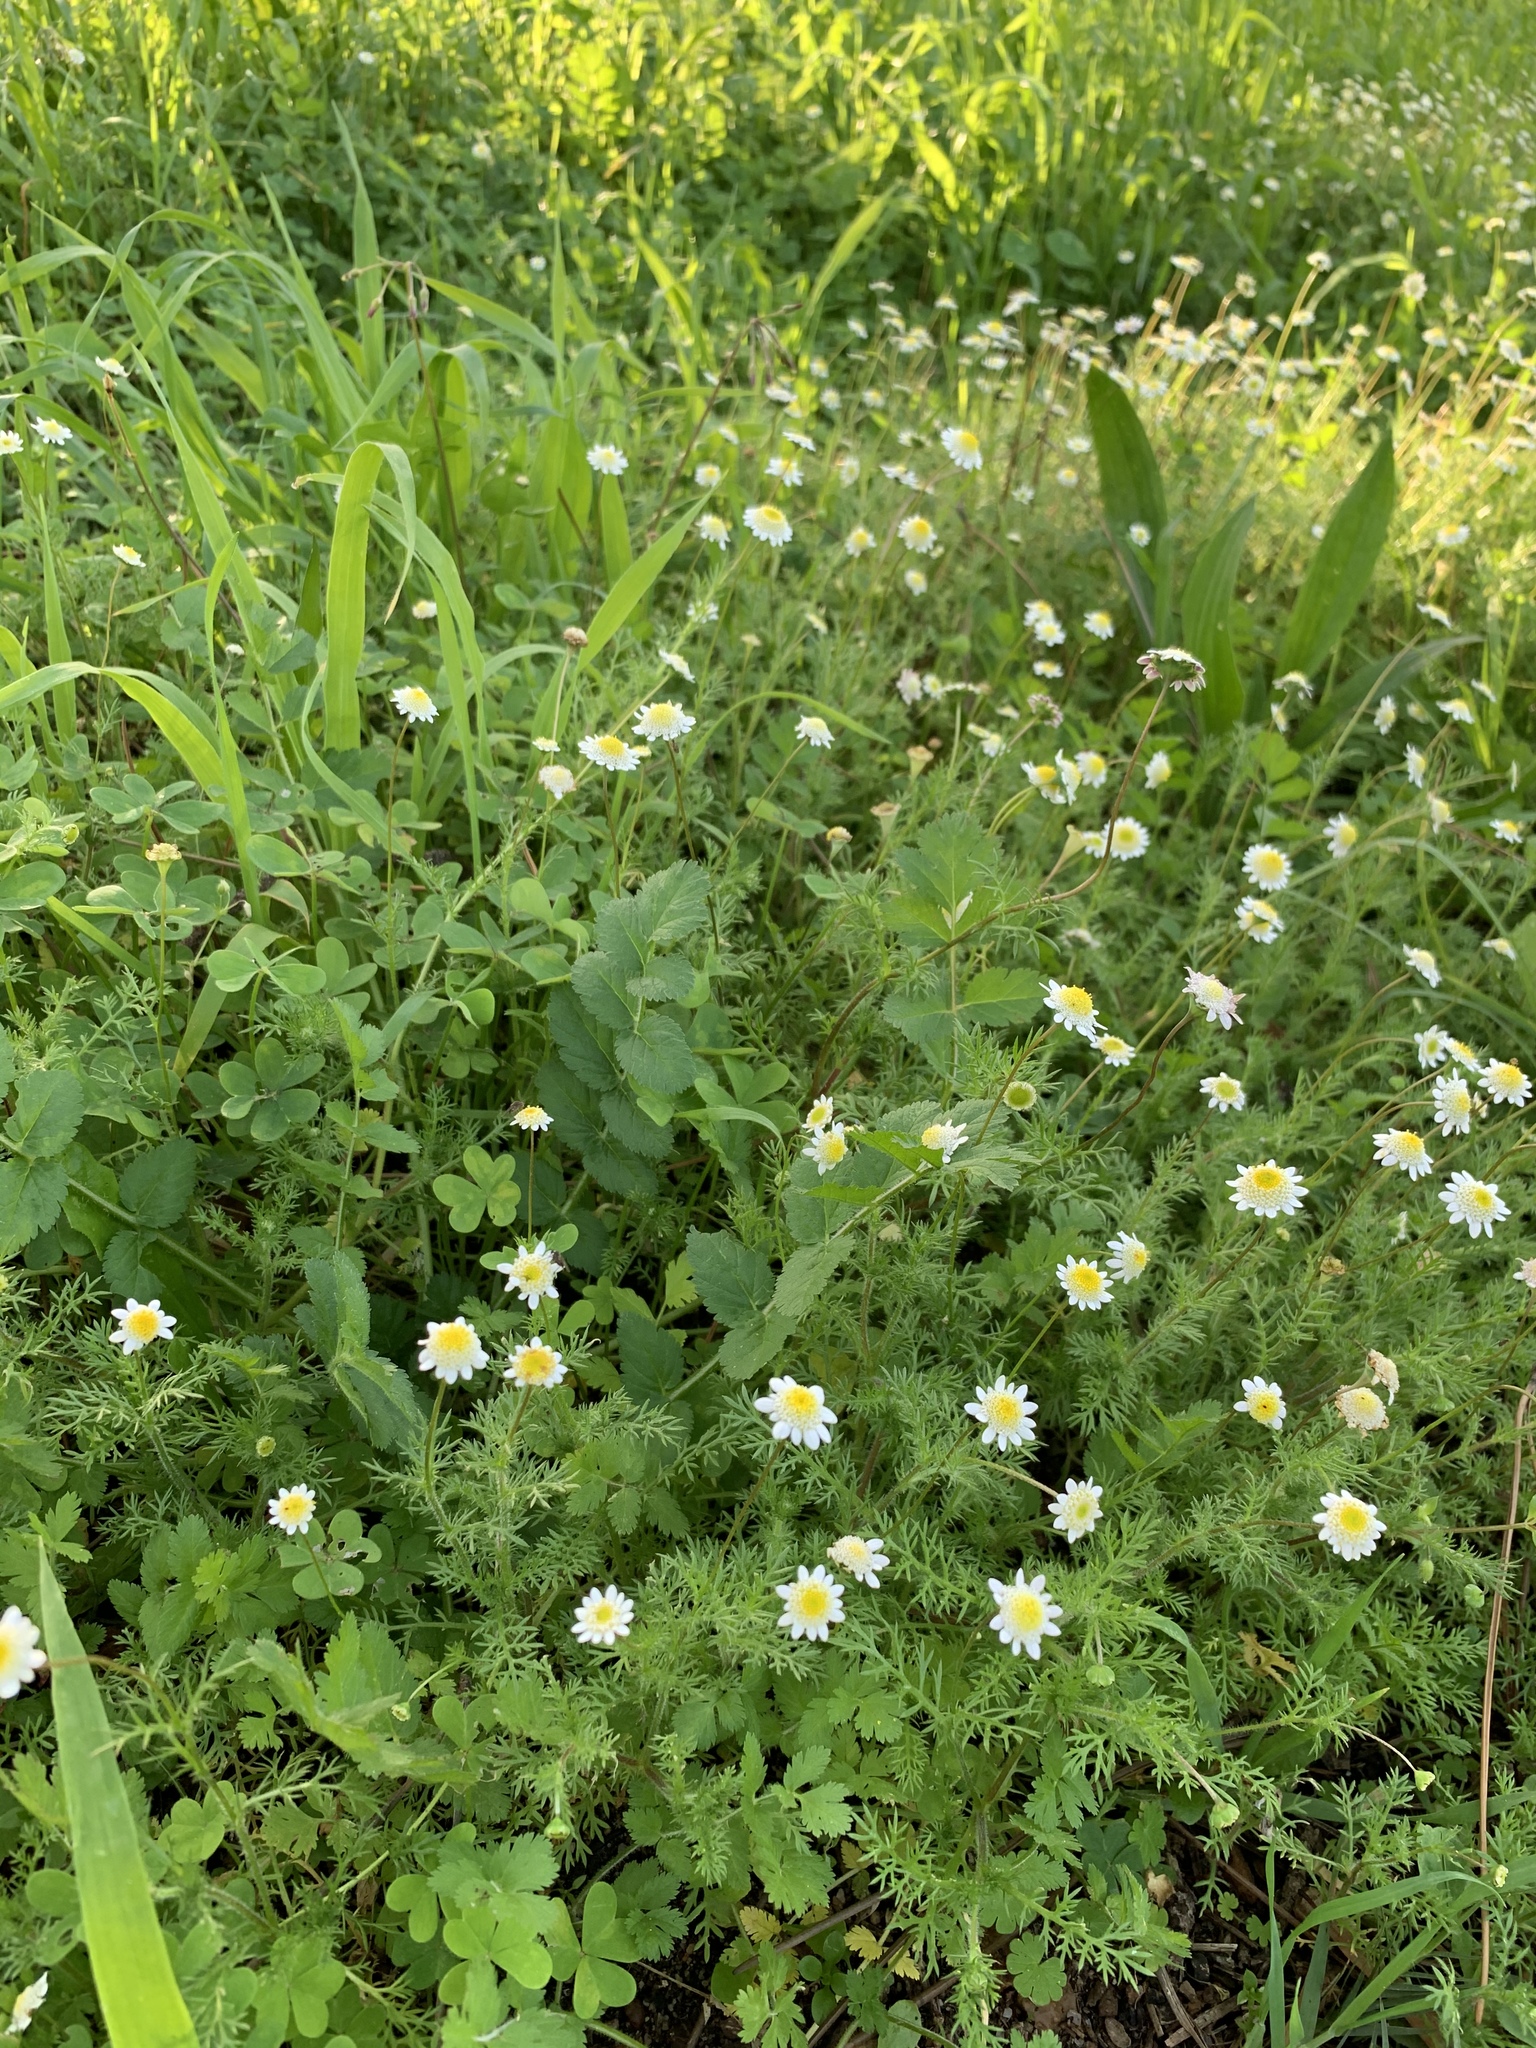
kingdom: Plantae
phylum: Tracheophyta
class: Magnoliopsida
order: Asterales
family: Asteraceae
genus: Cotula
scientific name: Cotula turbinata
